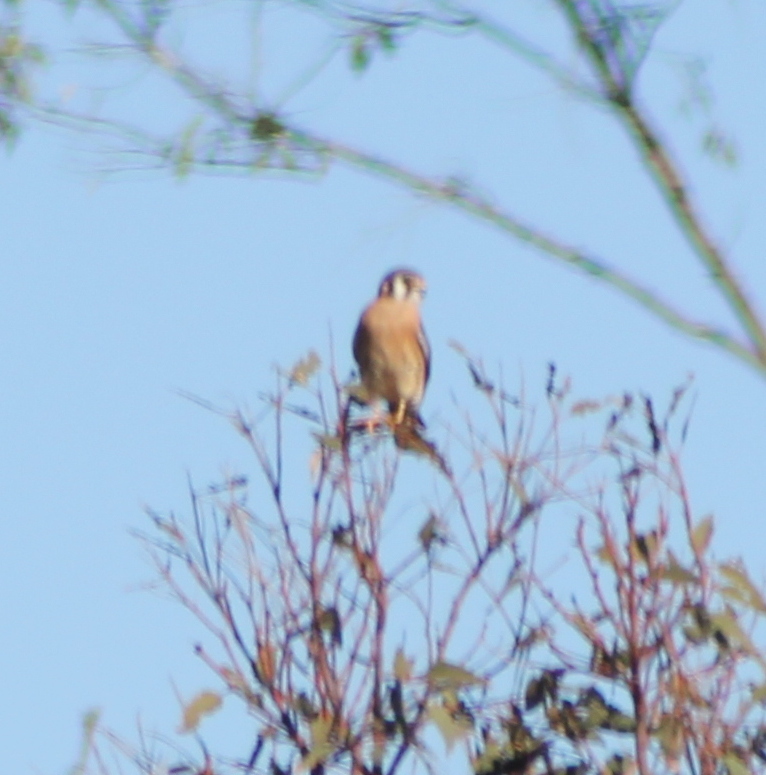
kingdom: Animalia
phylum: Chordata
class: Aves
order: Falconiformes
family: Falconidae
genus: Falco
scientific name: Falco sparverius
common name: American kestrel
